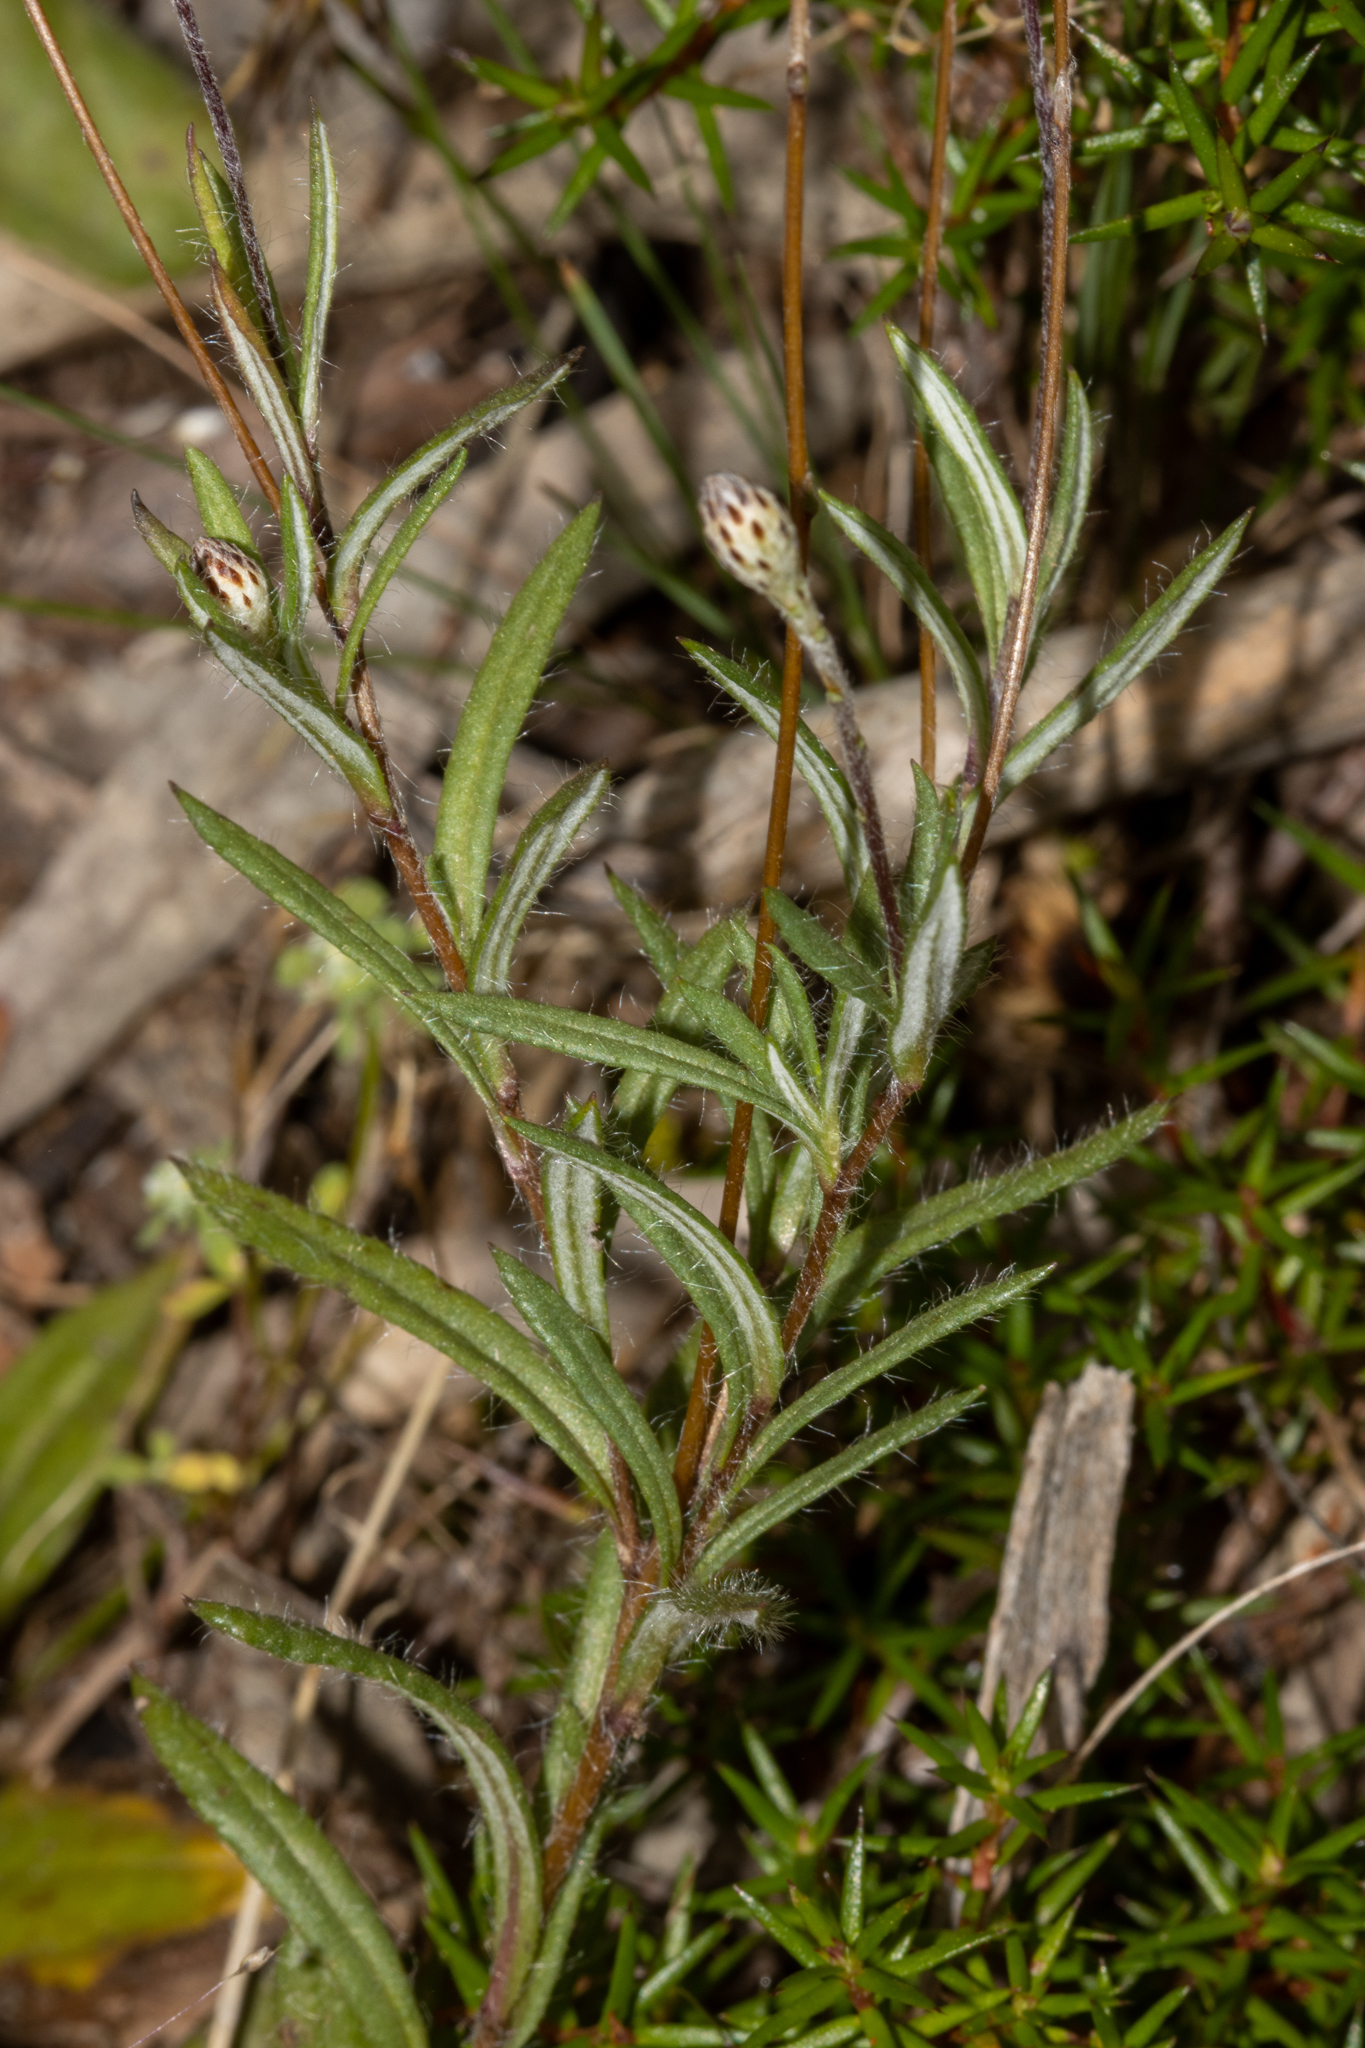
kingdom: Plantae
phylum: Tracheophyta
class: Magnoliopsida
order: Asterales
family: Asteraceae
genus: Leptorhynchos
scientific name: Leptorhynchos squamatus
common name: Scaly-buttons
